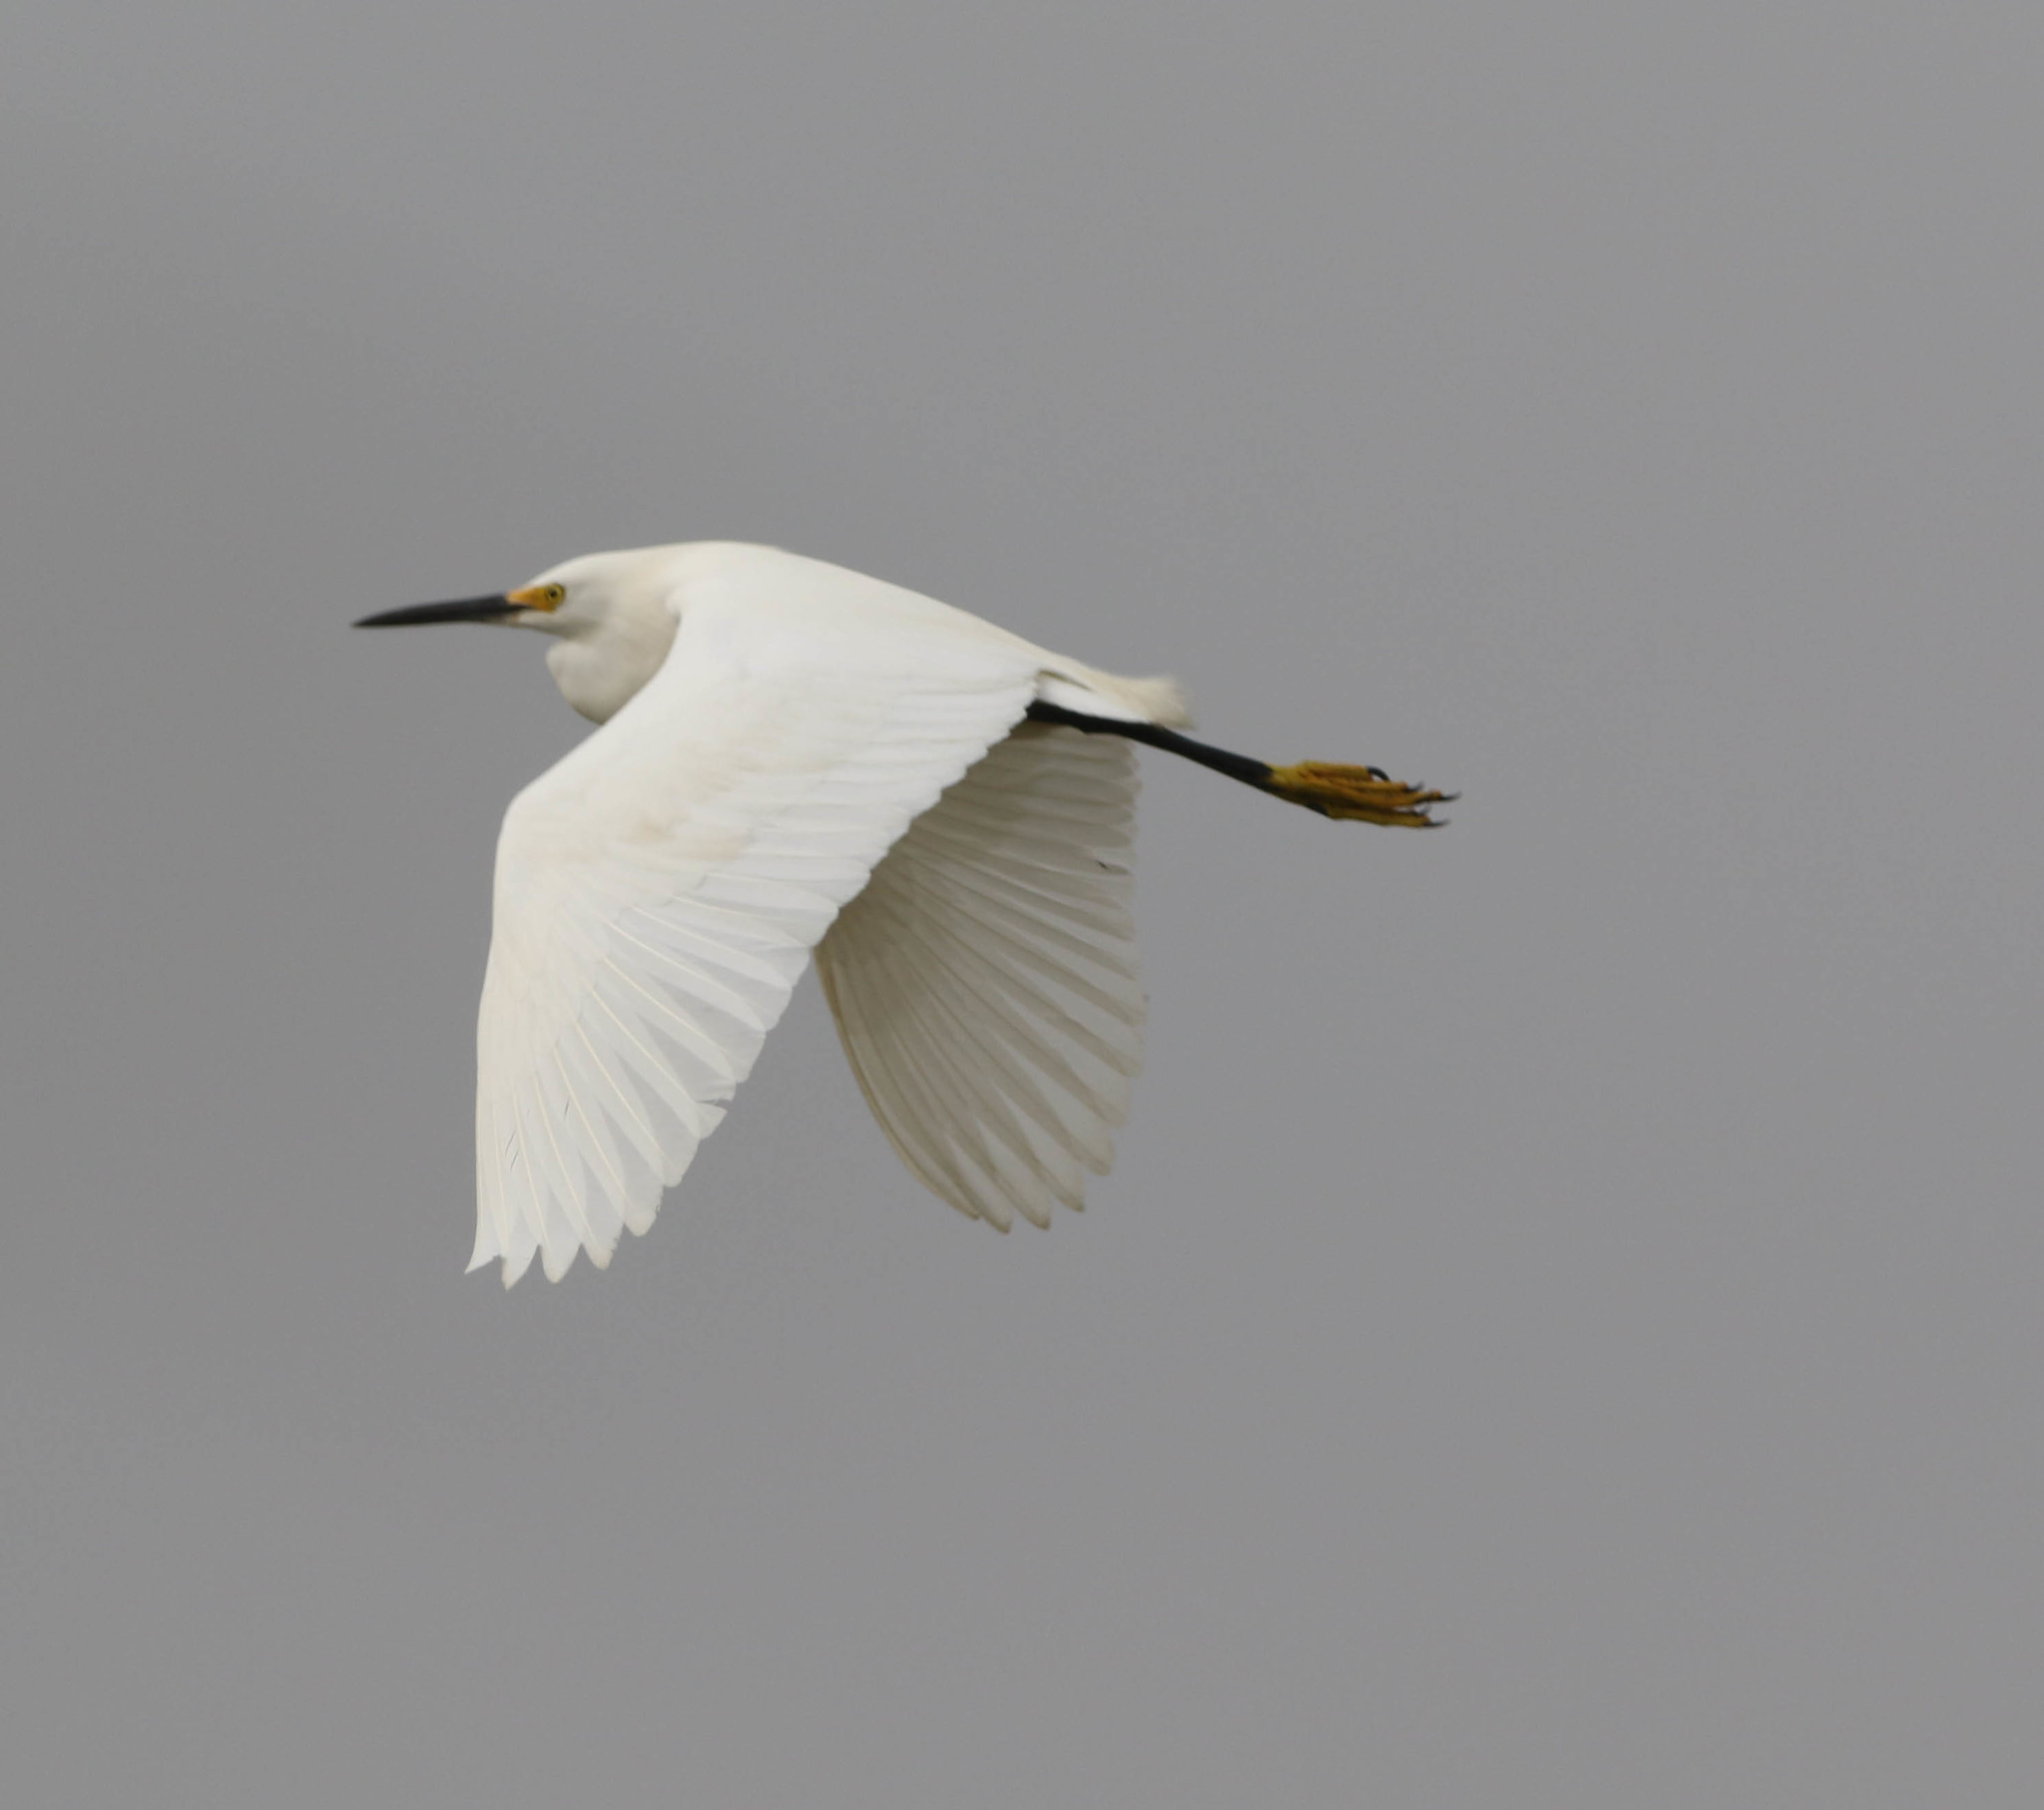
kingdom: Animalia
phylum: Chordata
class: Aves
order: Pelecaniformes
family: Ardeidae
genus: Egretta
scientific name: Egretta thula
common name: Snowy egret
